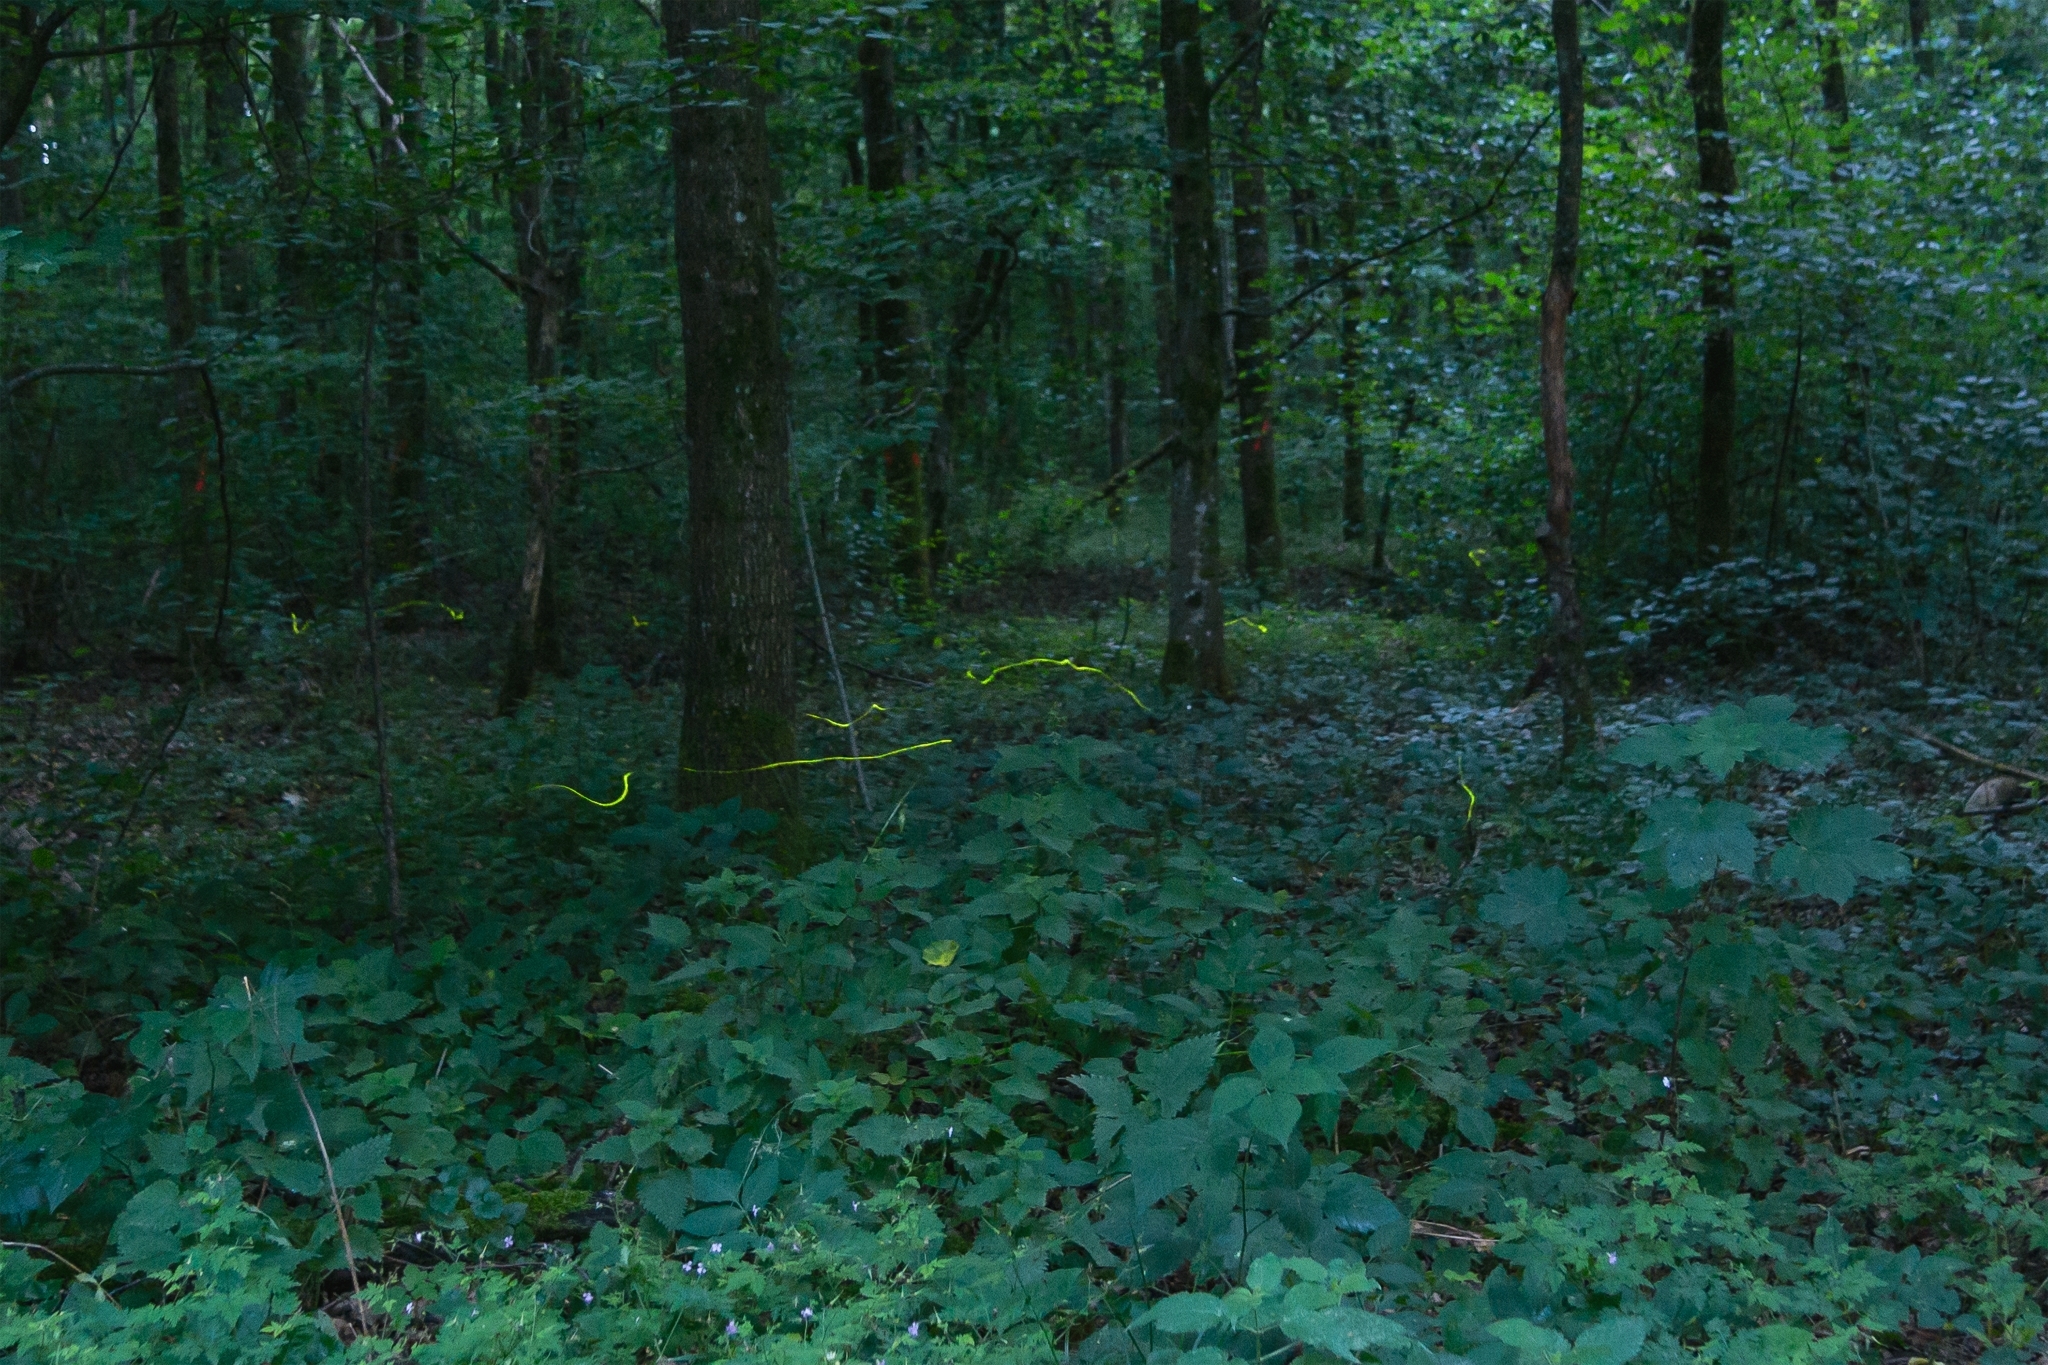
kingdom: Animalia
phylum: Arthropoda
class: Insecta
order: Coleoptera
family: Lampyridae
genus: Lamprohiza
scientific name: Lamprohiza splendidula
